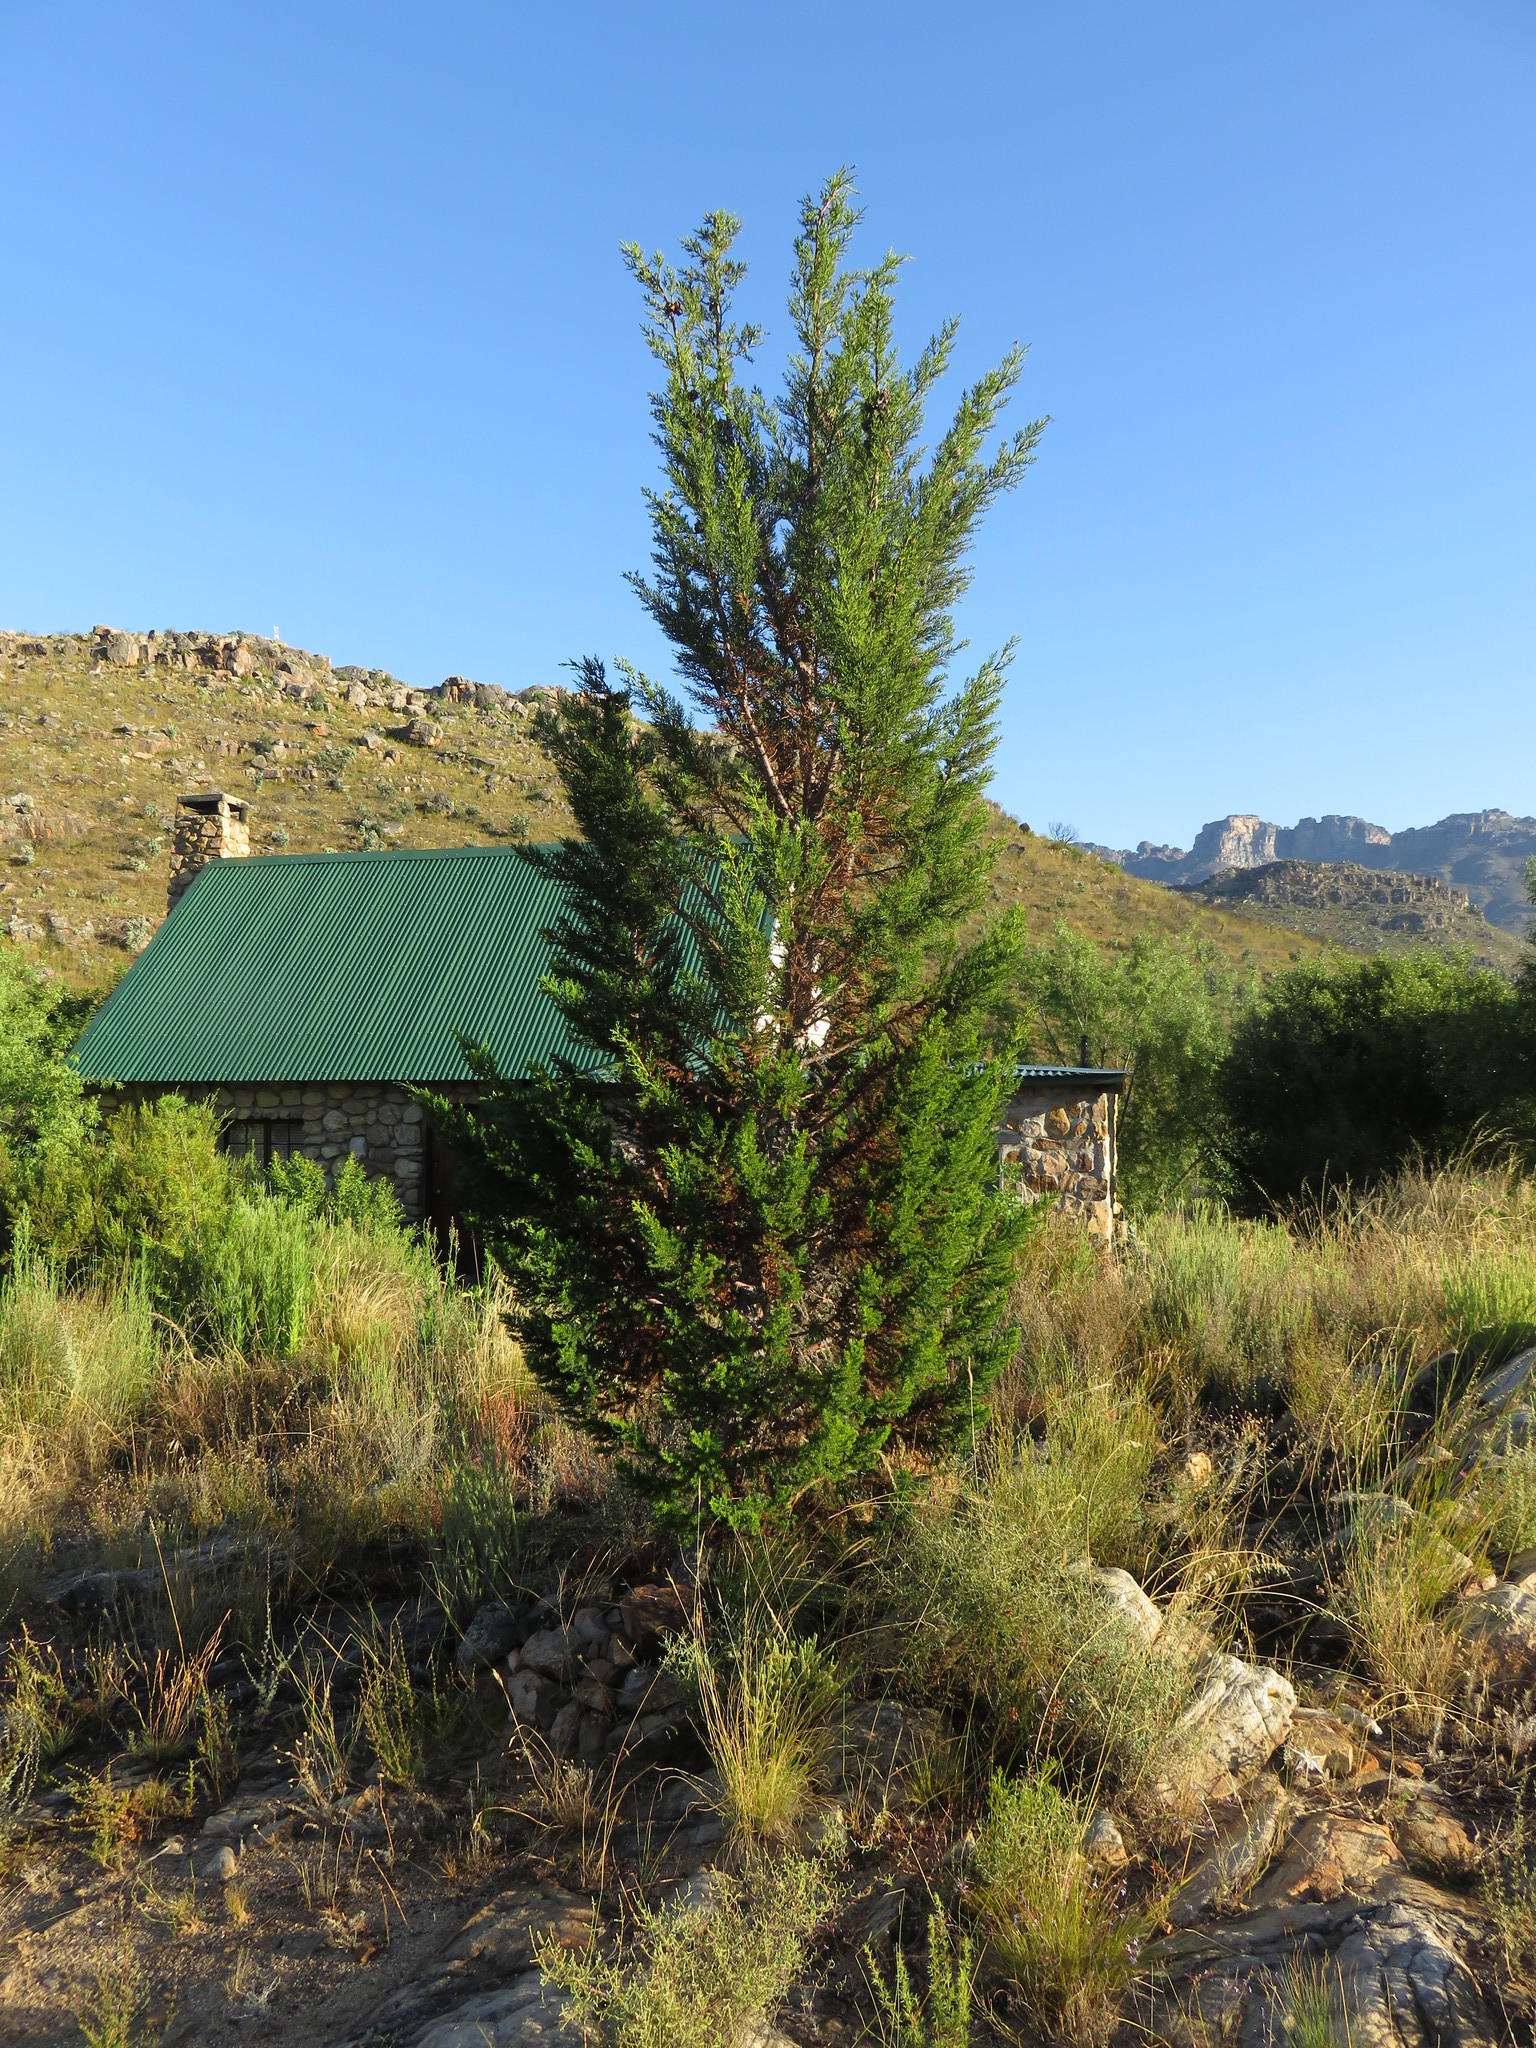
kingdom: Plantae
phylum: Tracheophyta
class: Pinopsida
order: Pinales
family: Cupressaceae
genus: Widdringtonia
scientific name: Widdringtonia nodiflora
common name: Cape cypress
